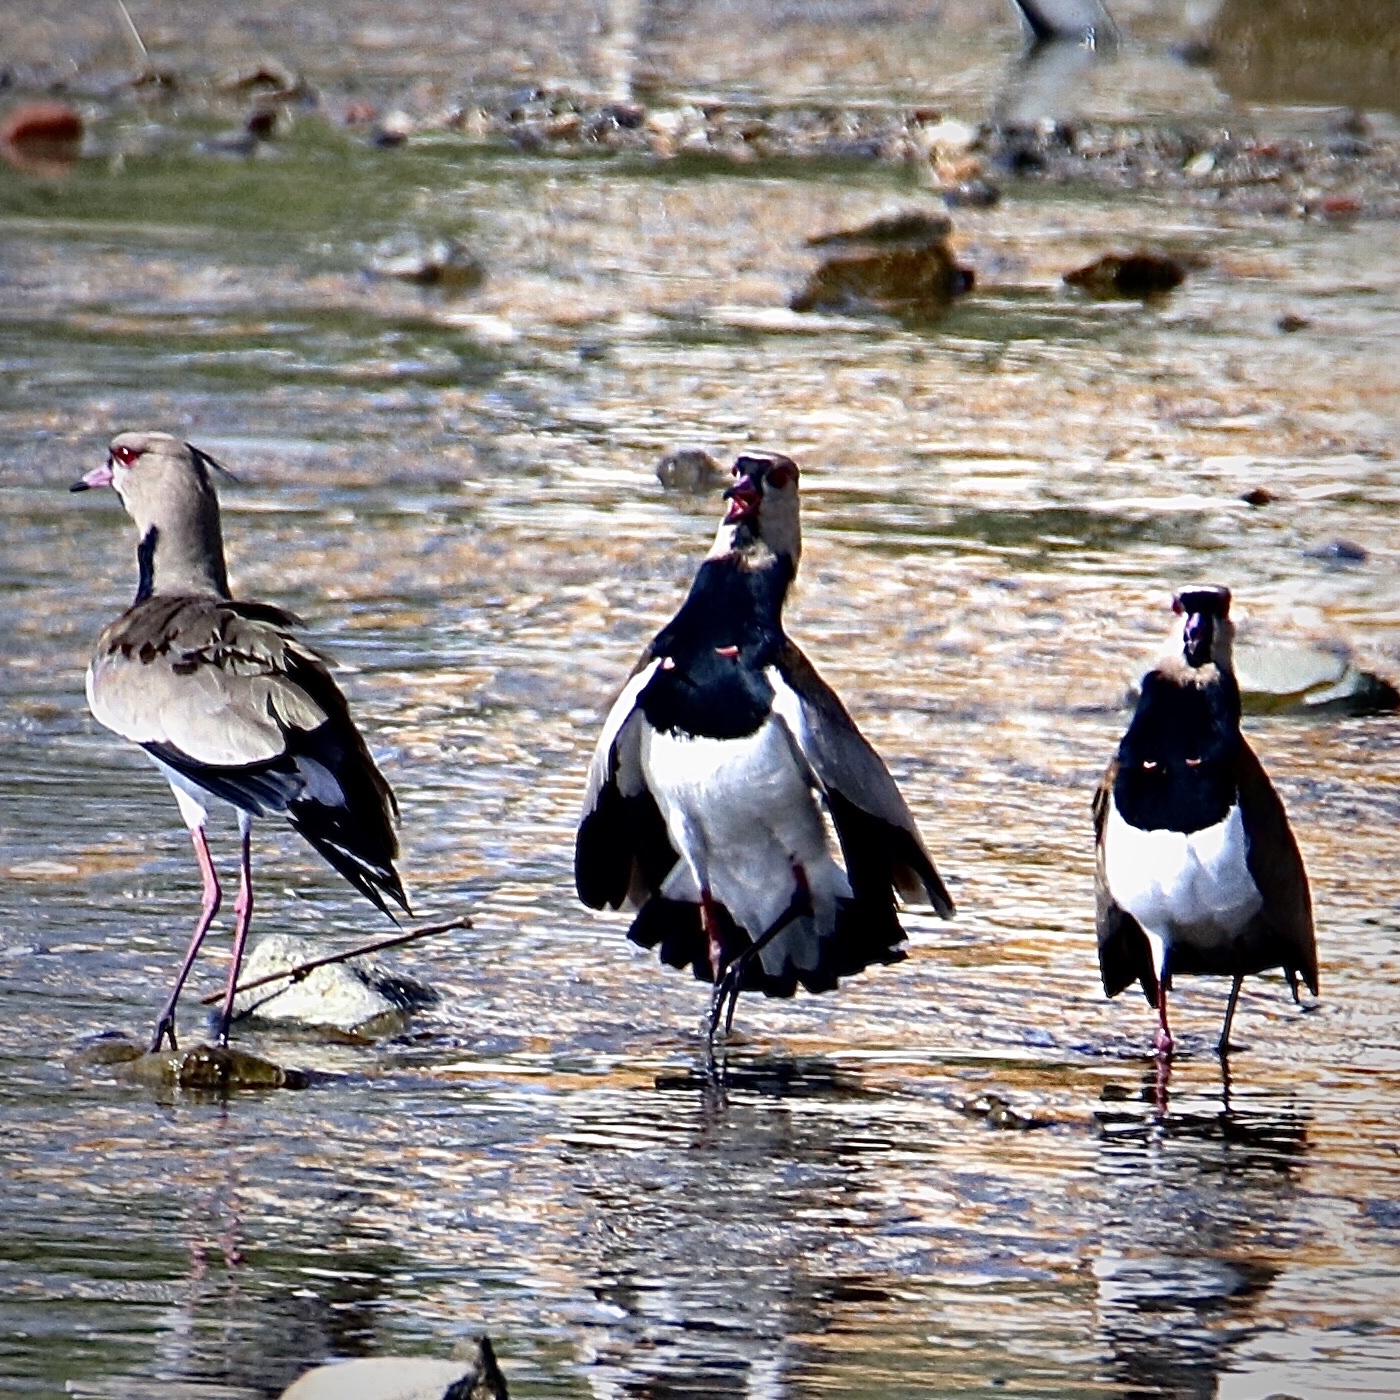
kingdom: Animalia
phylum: Chordata
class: Aves
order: Charadriiformes
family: Charadriidae
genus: Vanellus
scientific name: Vanellus chilensis
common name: Southern lapwing
